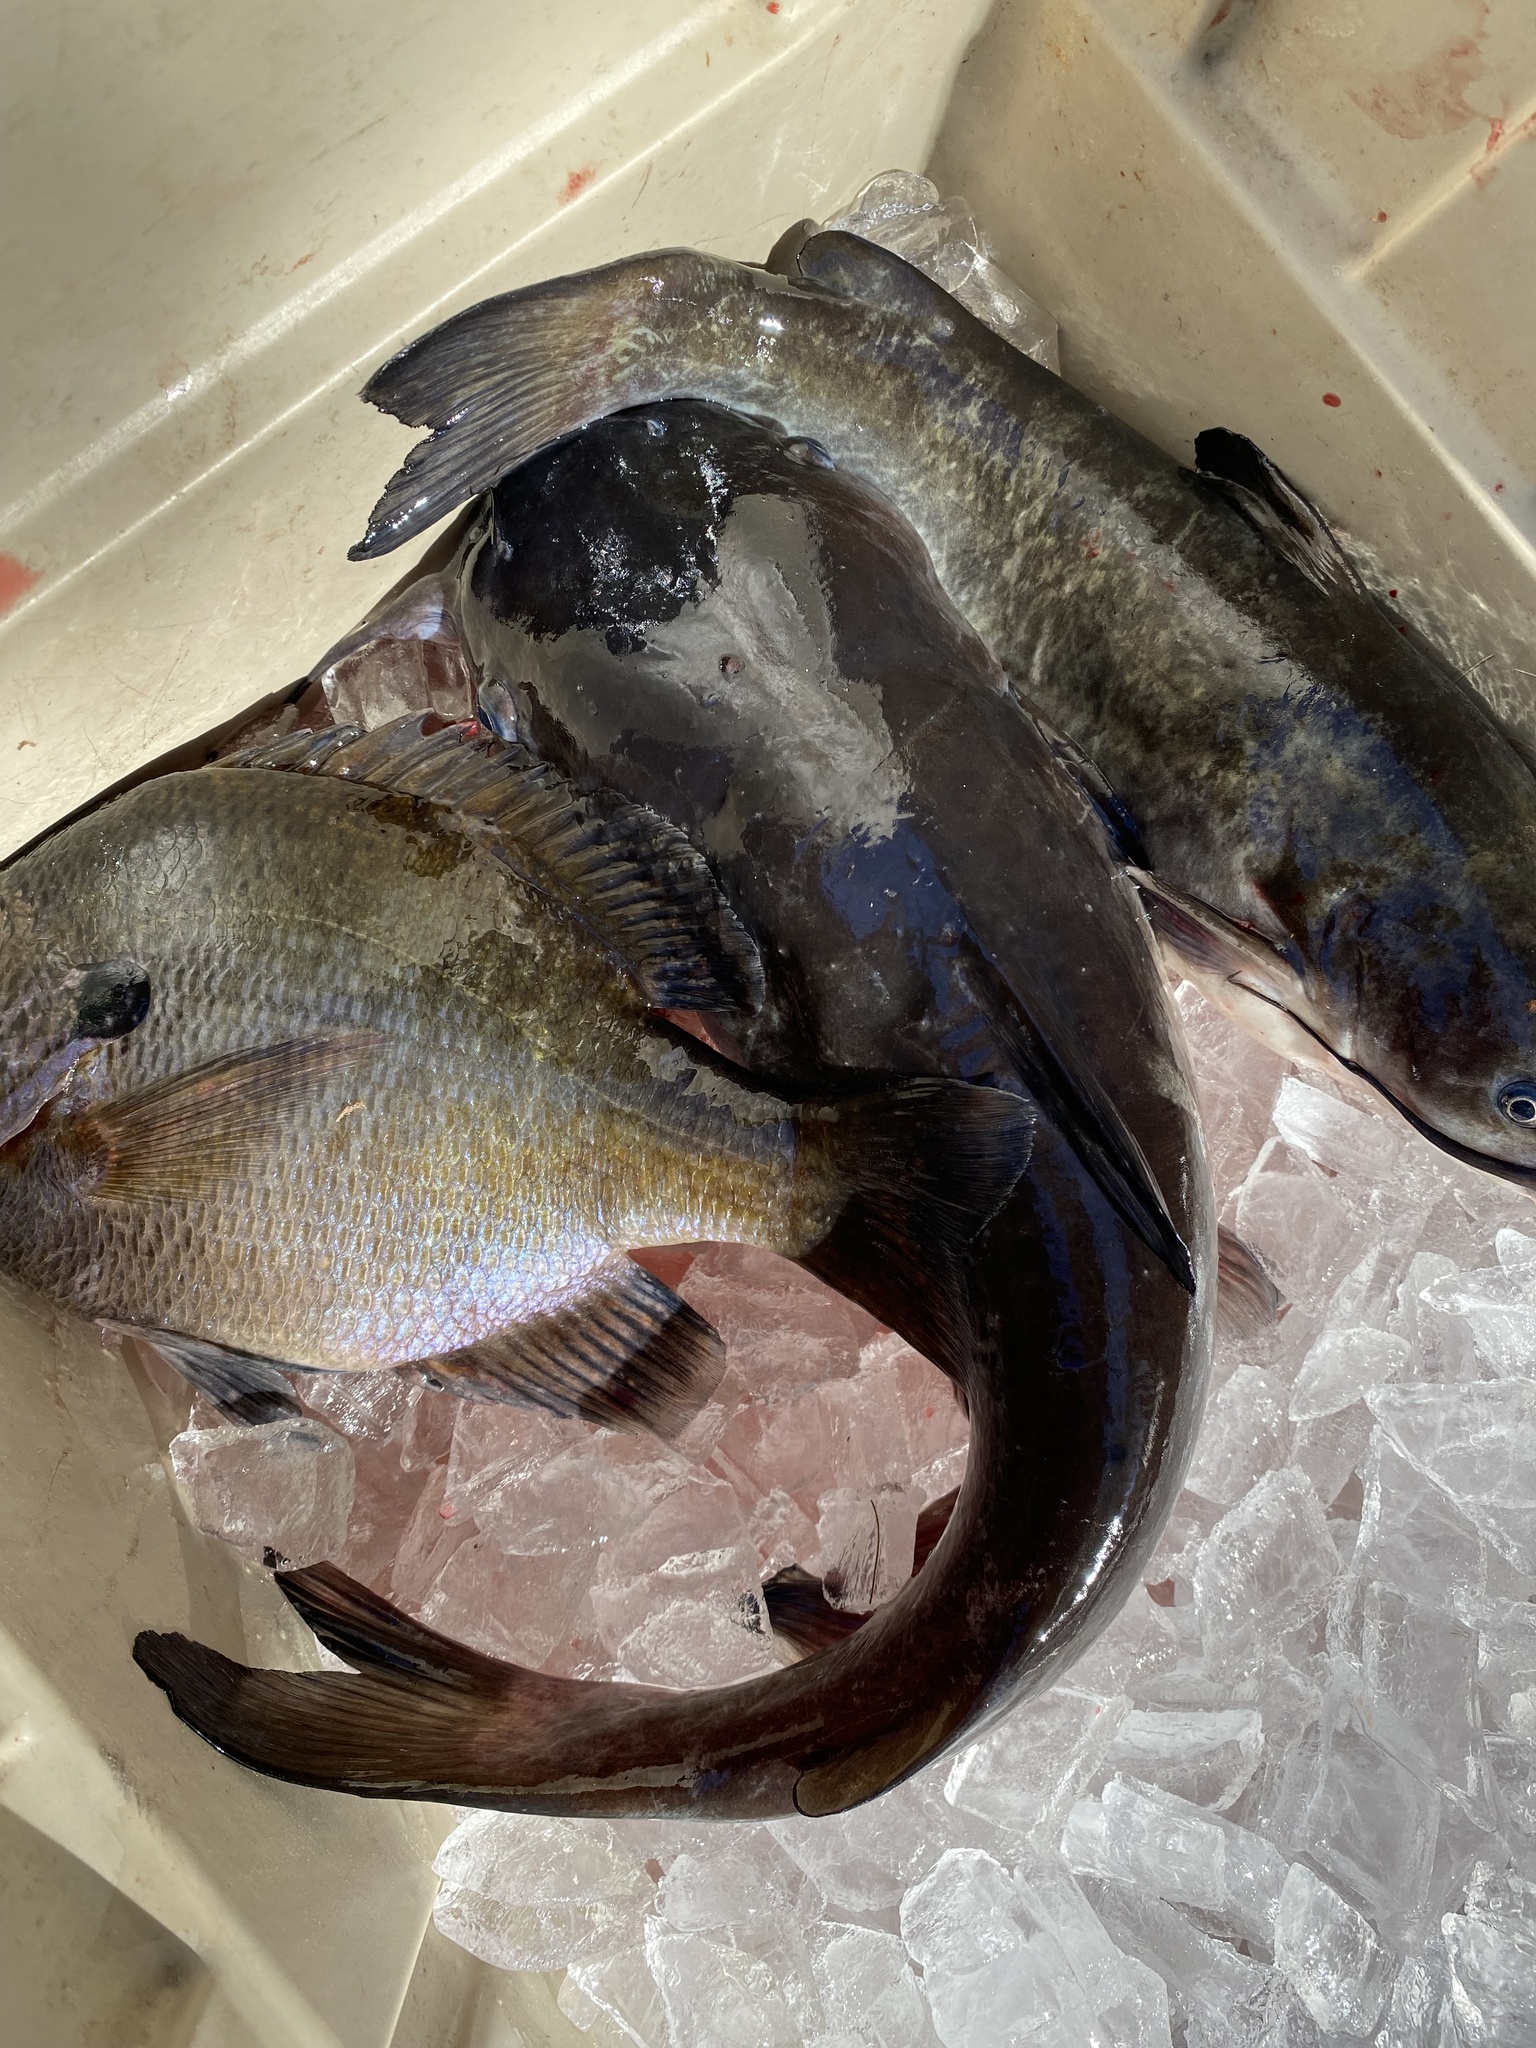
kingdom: Animalia
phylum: Chordata
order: Siluriformes
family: Ictaluridae
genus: Ameiurus
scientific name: Ameiurus catus
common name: White catfish
